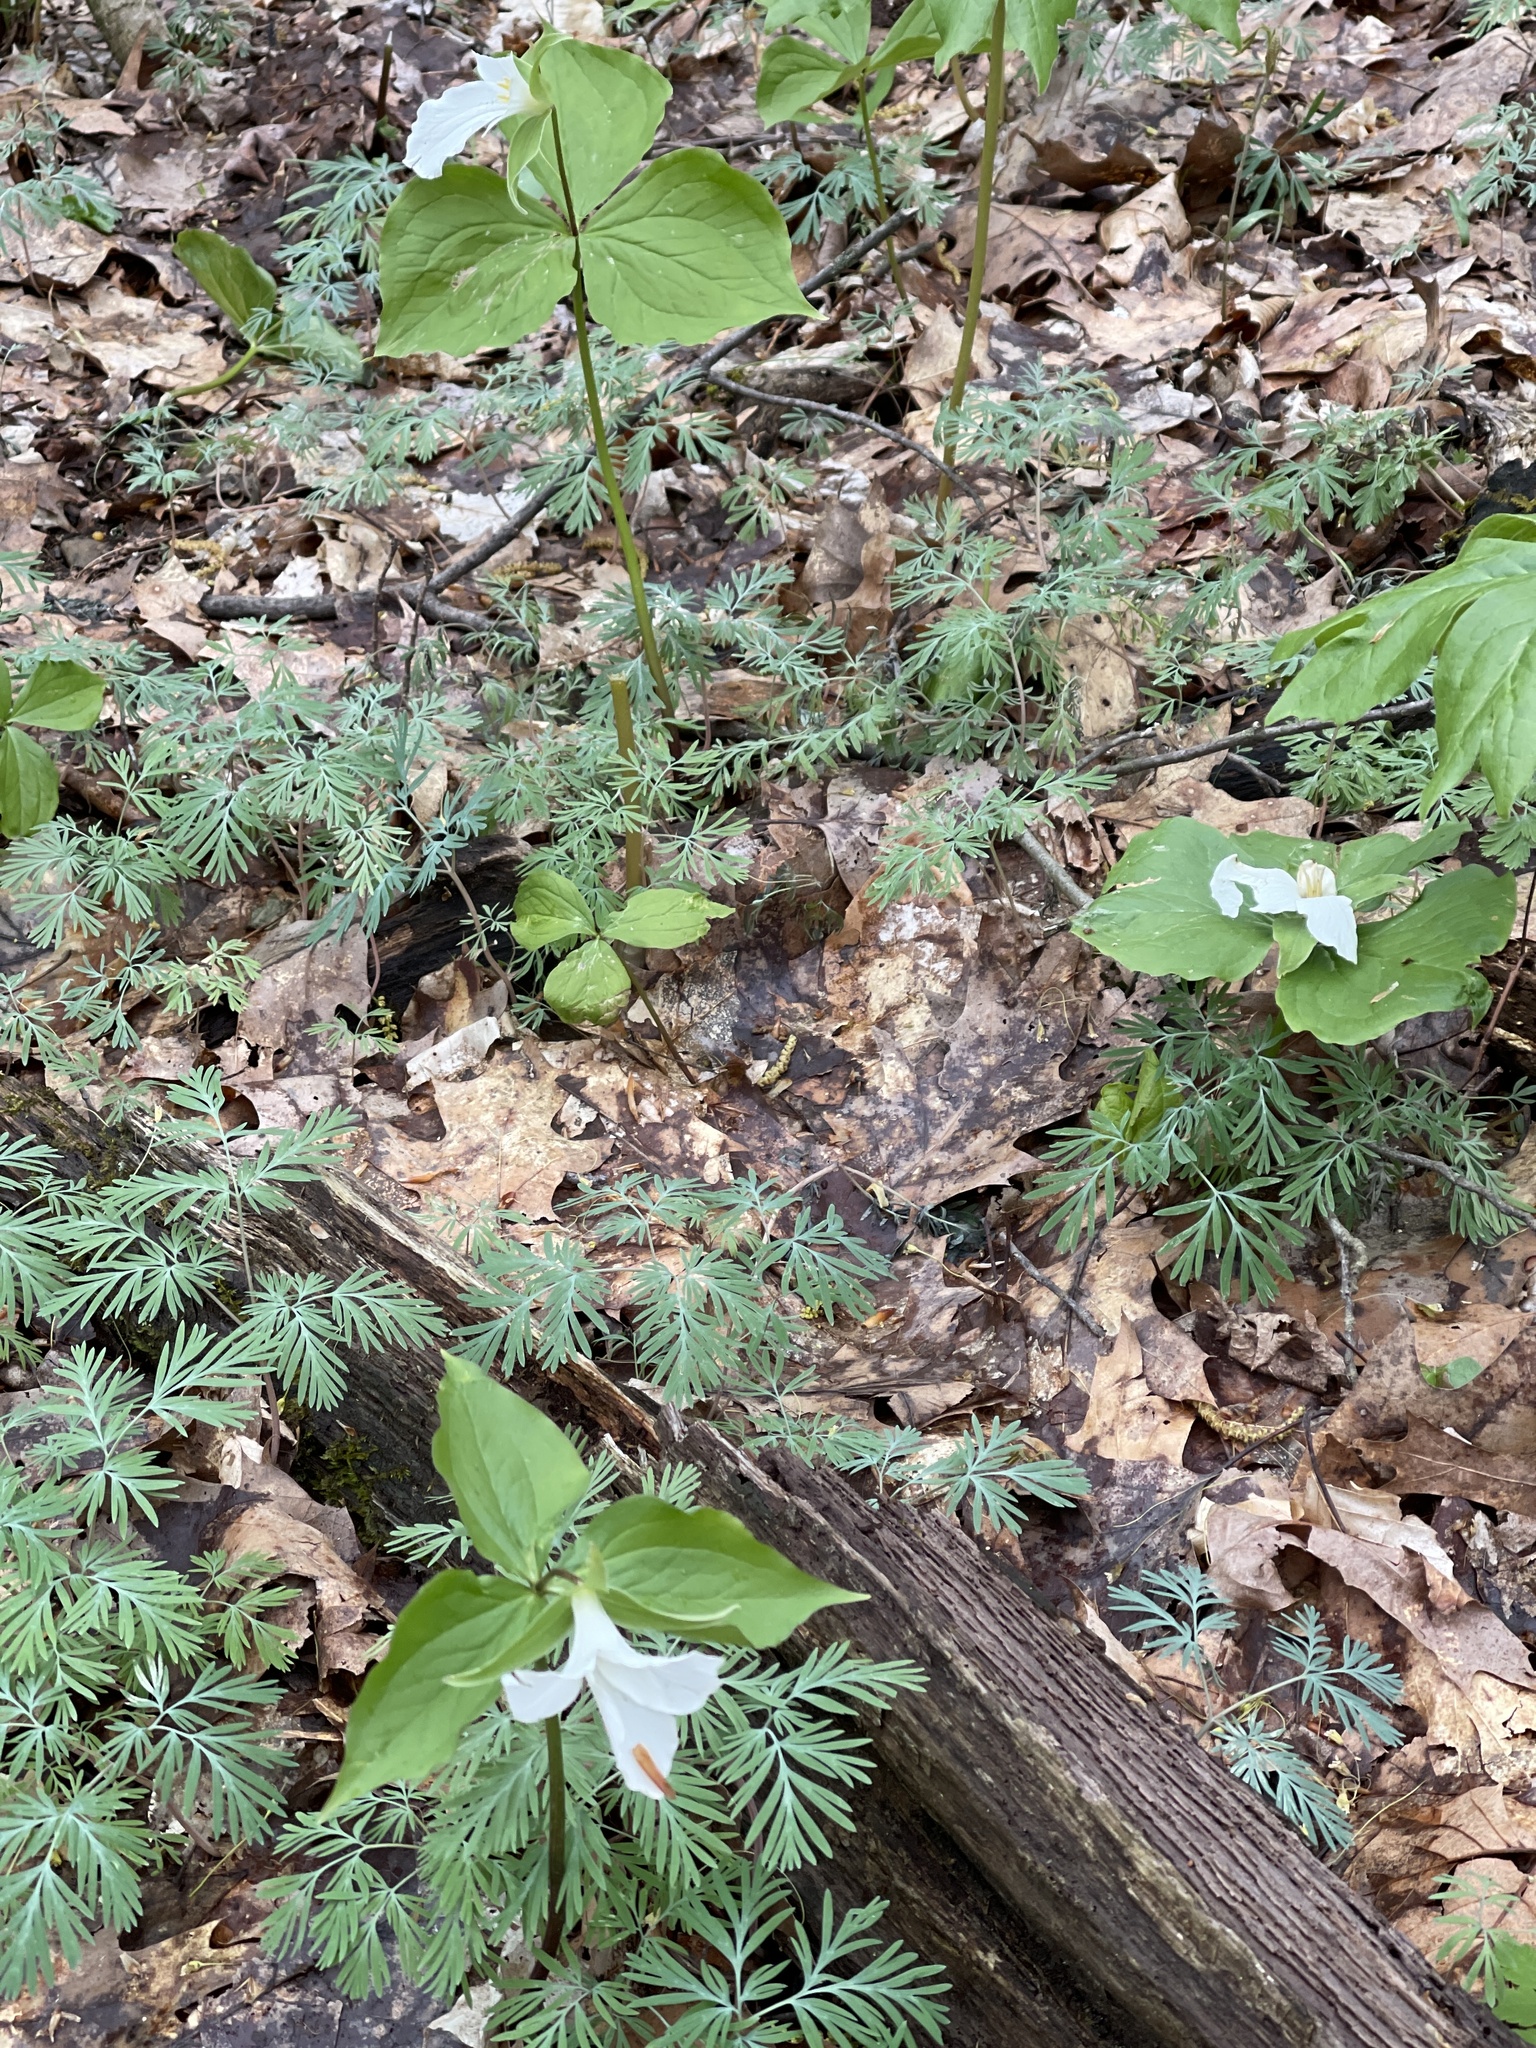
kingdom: Plantae
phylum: Tracheophyta
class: Liliopsida
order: Liliales
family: Melanthiaceae
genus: Trillium
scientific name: Trillium grandiflorum
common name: Great white trillium
